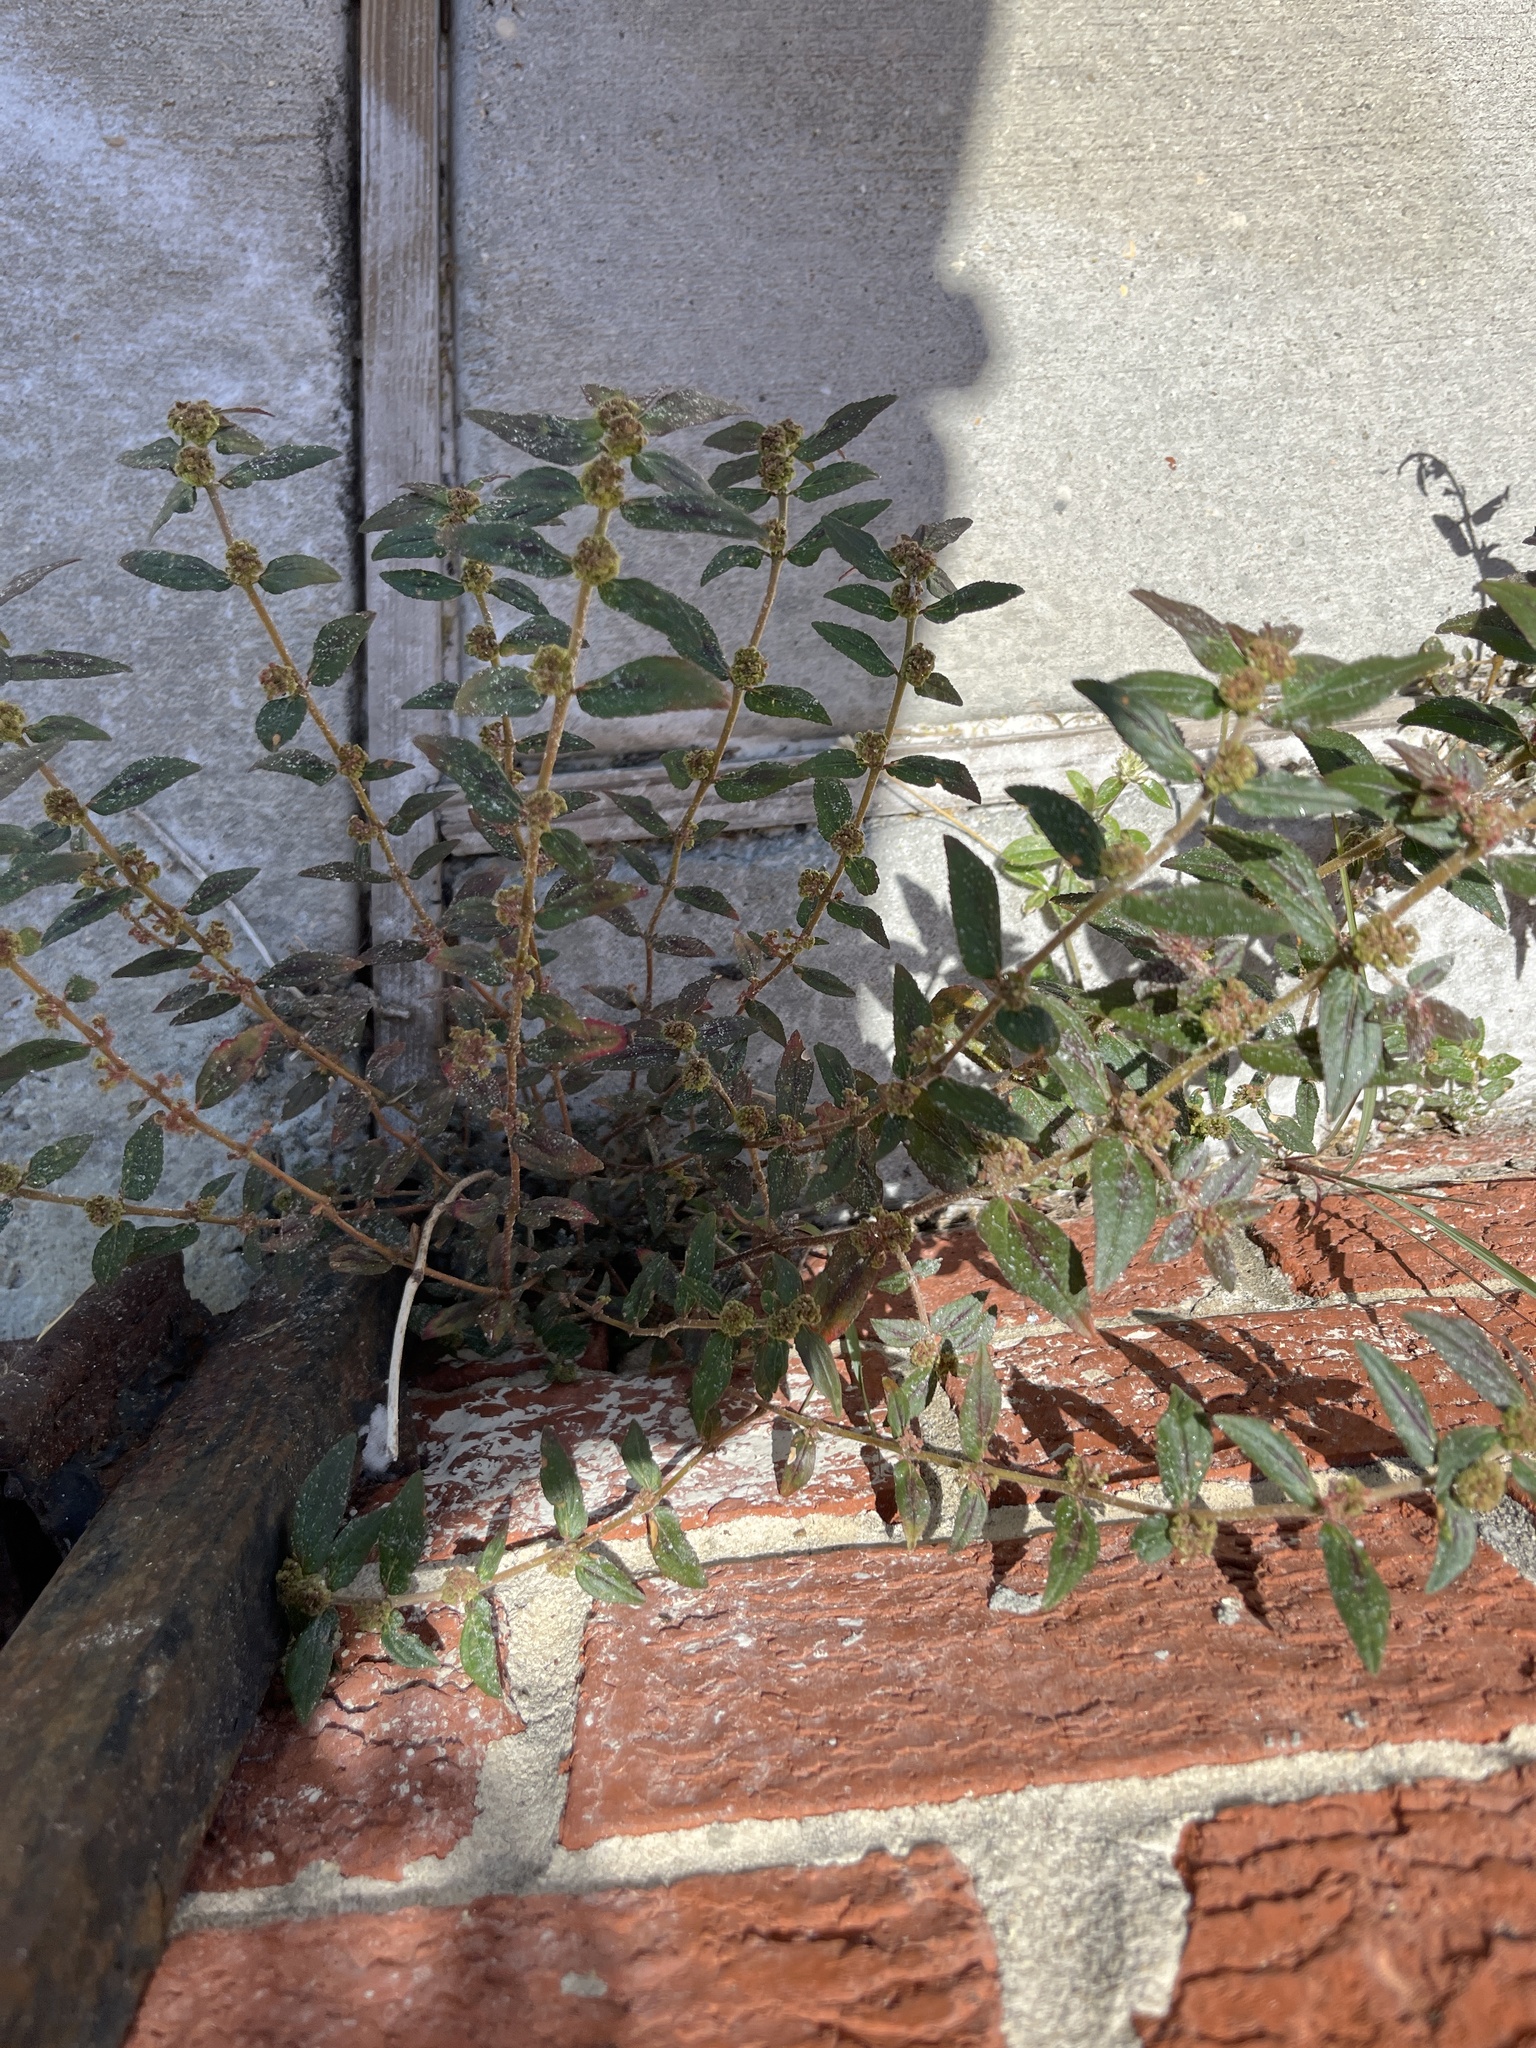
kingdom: Plantae
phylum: Tracheophyta
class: Magnoliopsida
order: Malpighiales
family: Euphorbiaceae
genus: Euphorbia
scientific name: Euphorbia hirta
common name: Pillpod sandmat
